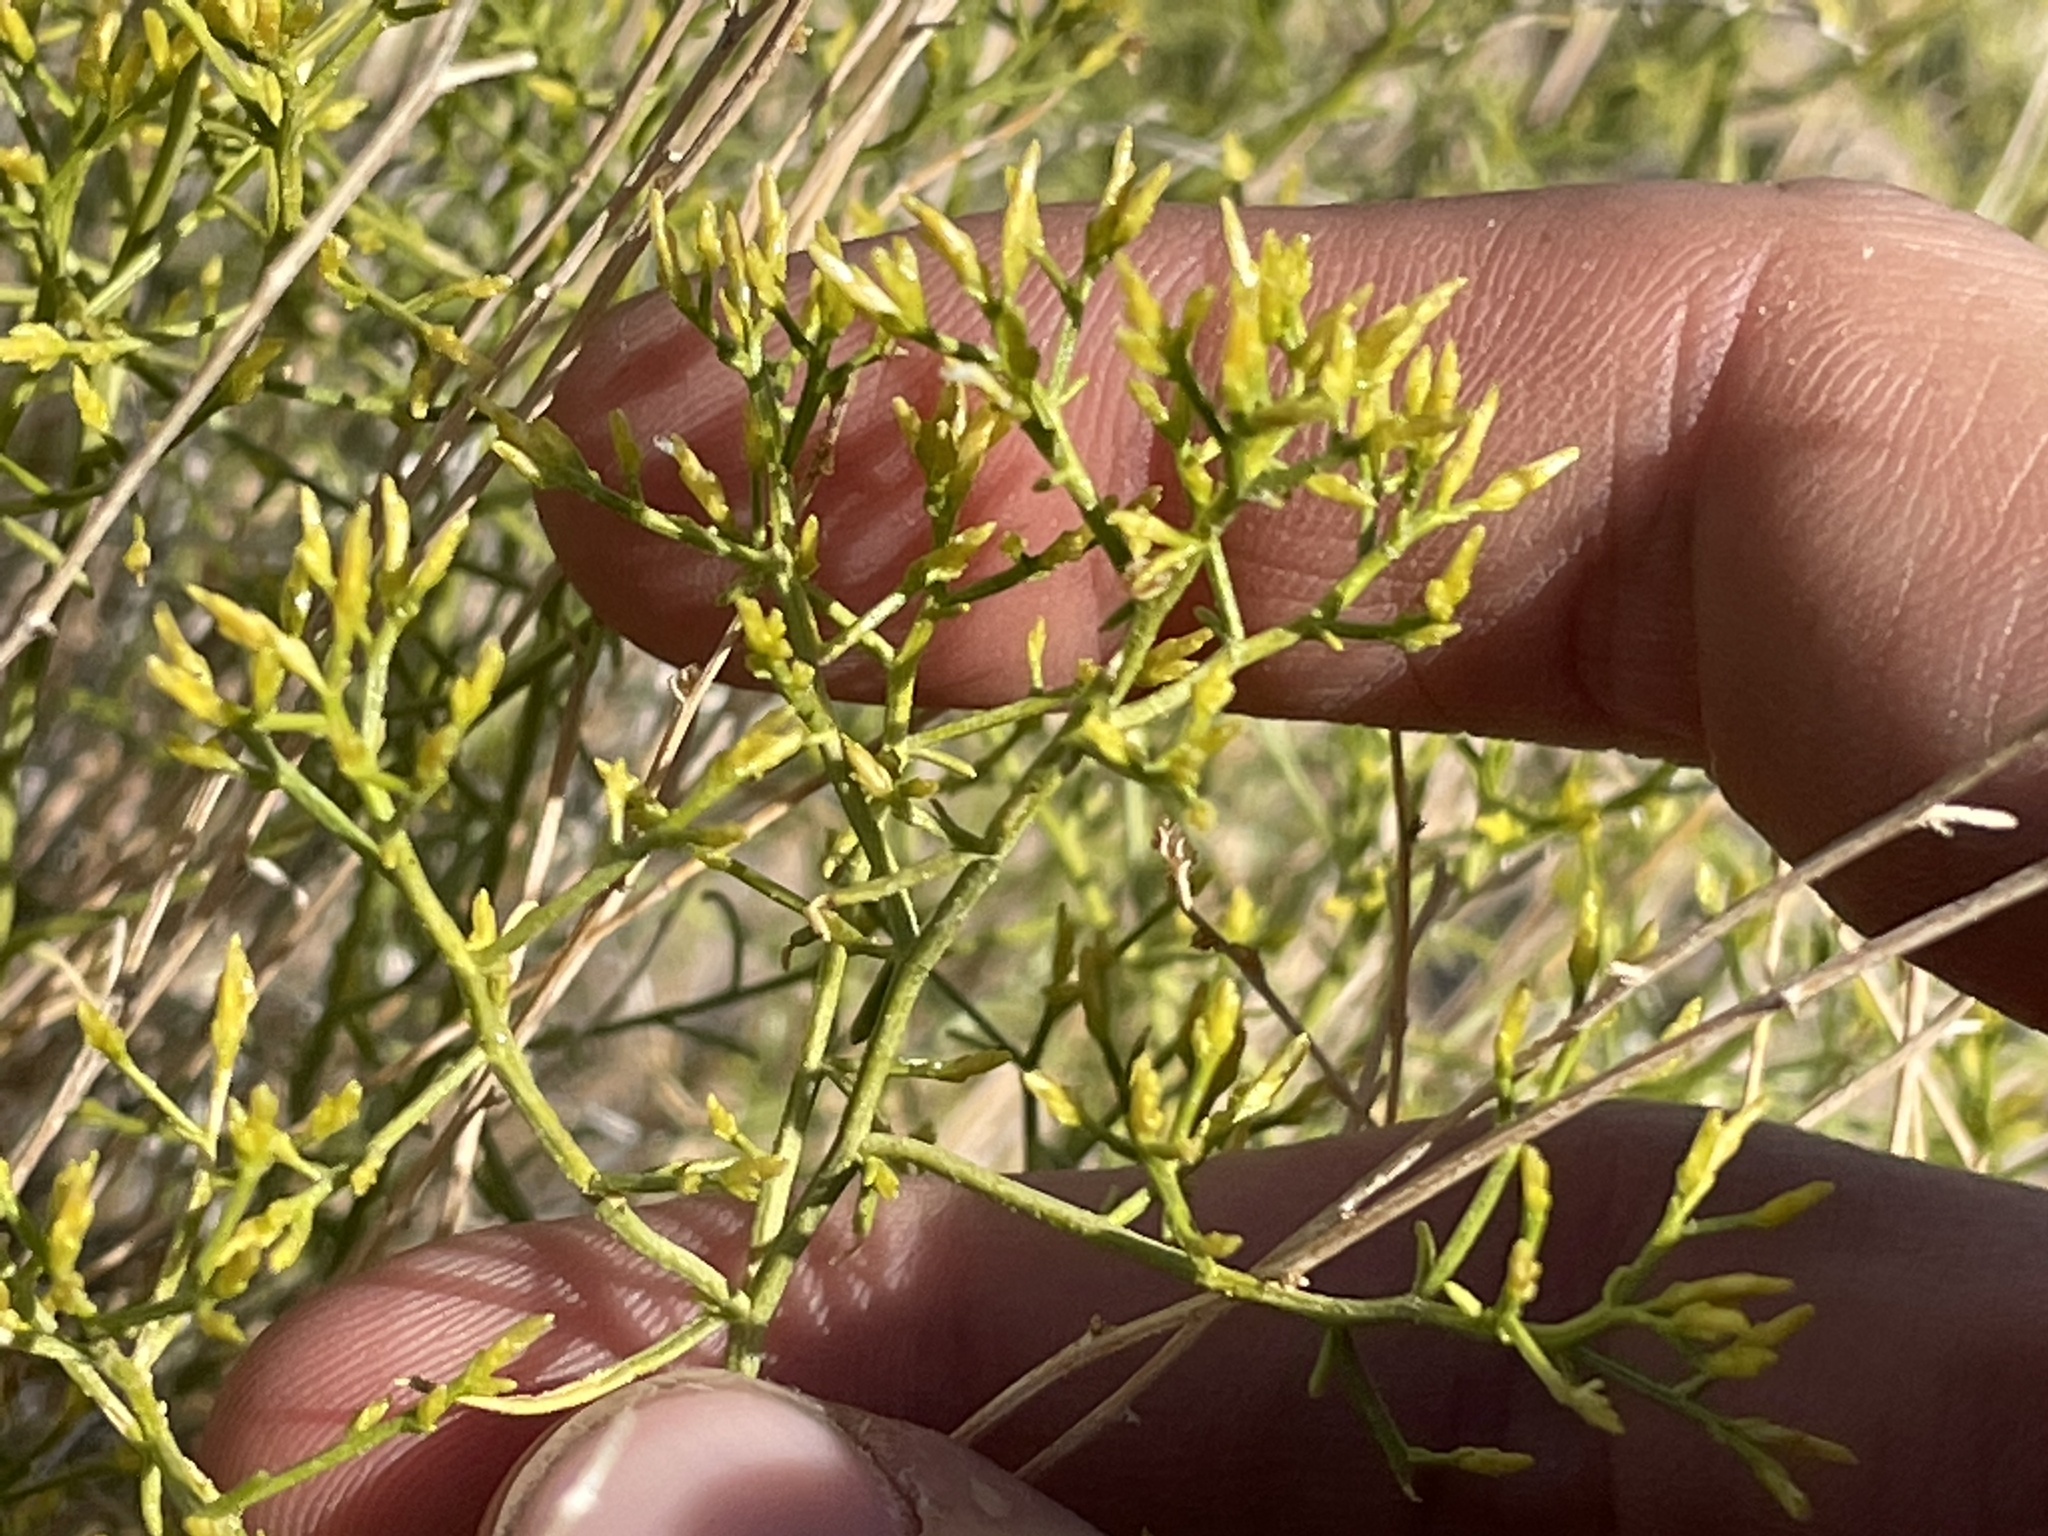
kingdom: Plantae
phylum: Tracheophyta
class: Magnoliopsida
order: Asterales
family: Asteraceae
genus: Gutierrezia
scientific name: Gutierrezia microcephala
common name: Thread snakeweed
